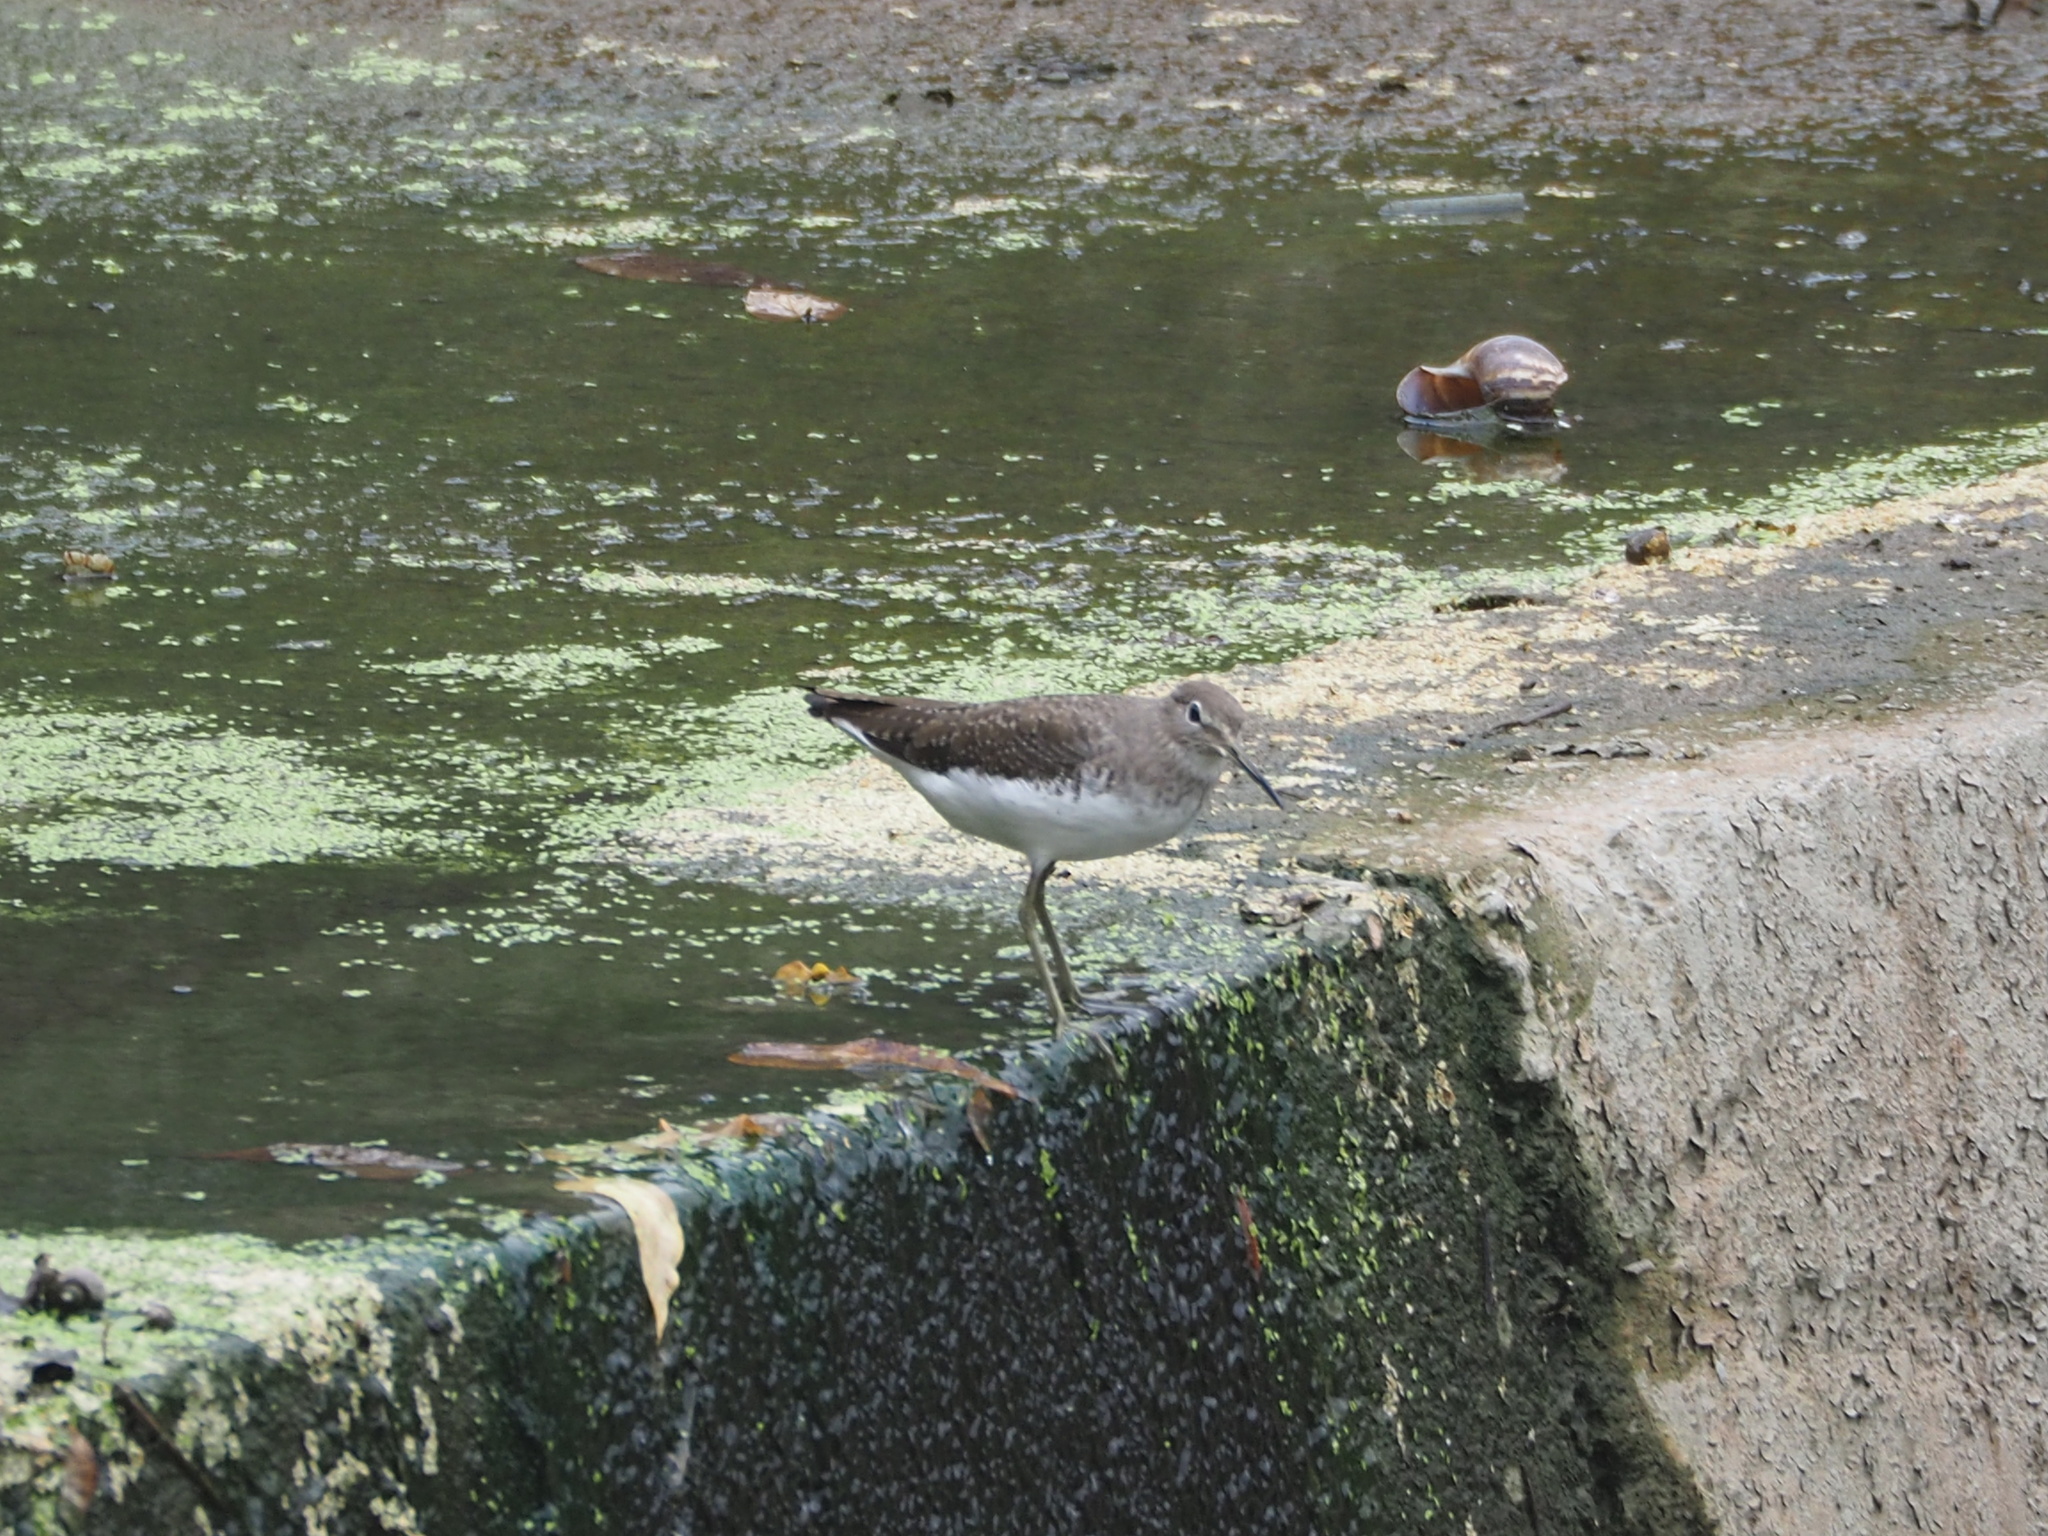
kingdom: Animalia
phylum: Chordata
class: Aves
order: Charadriiformes
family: Scolopacidae
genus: Tringa
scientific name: Tringa ochropus
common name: Green sandpiper
